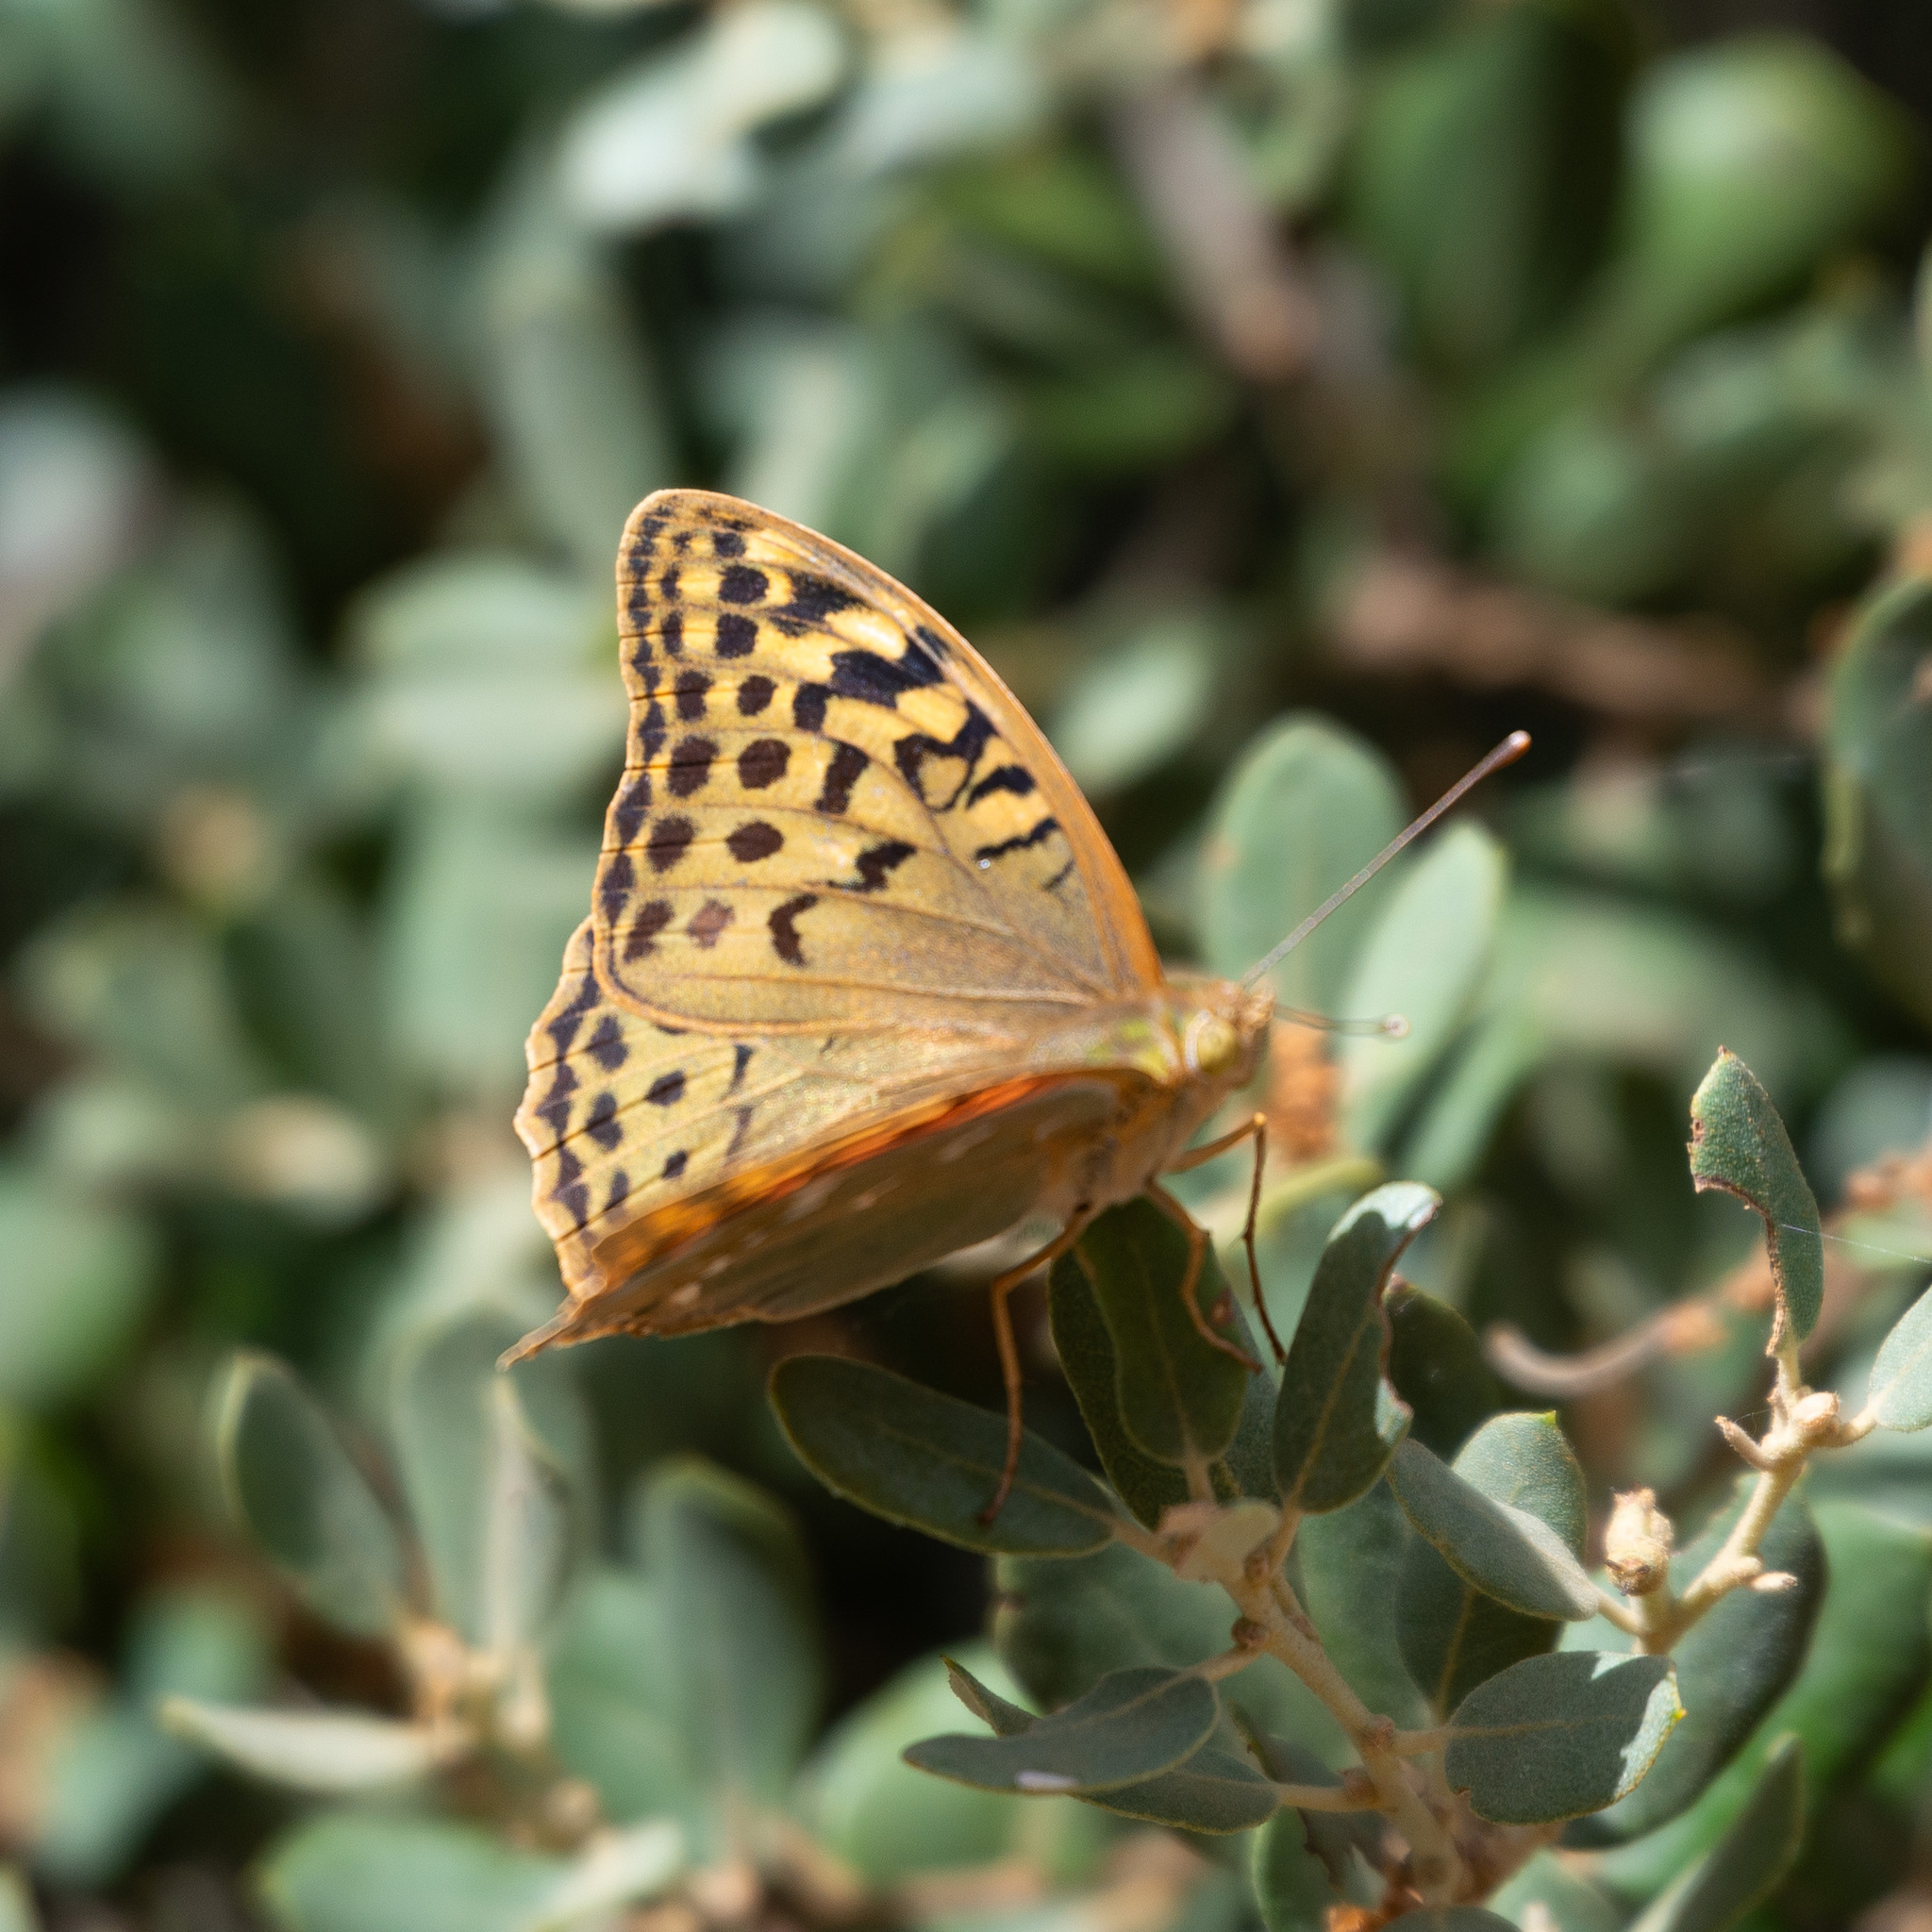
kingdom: Animalia
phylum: Arthropoda
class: Insecta
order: Lepidoptera
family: Nymphalidae
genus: Damora
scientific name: Damora pandora
